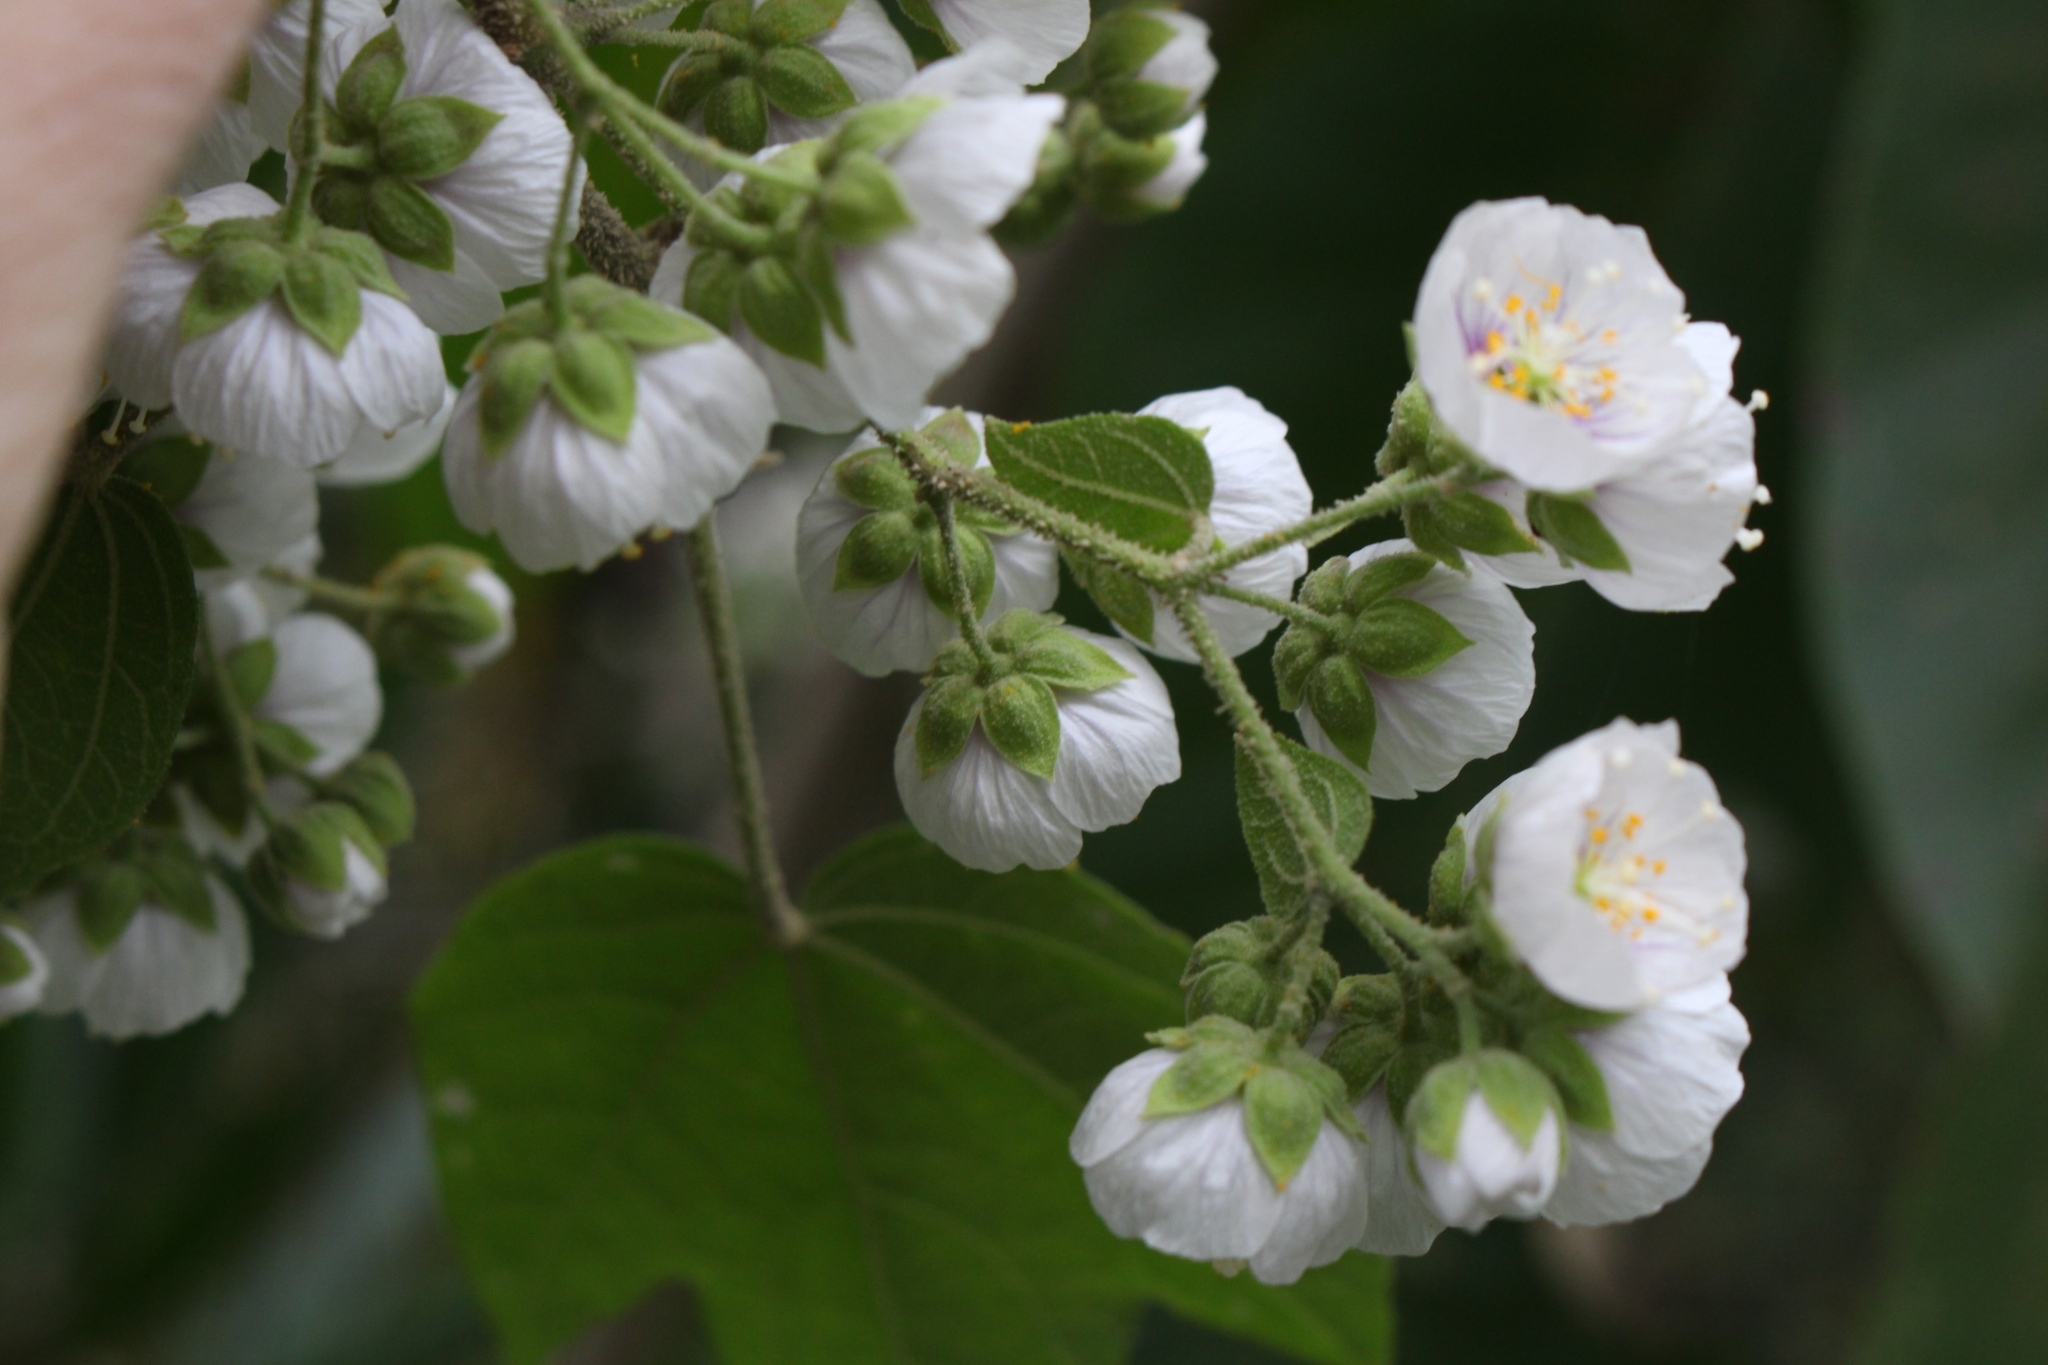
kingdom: Plantae
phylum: Tracheophyta
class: Magnoliopsida
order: Malvales
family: Malvaceae
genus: Robinsonella
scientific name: Robinsonella lindeniana
